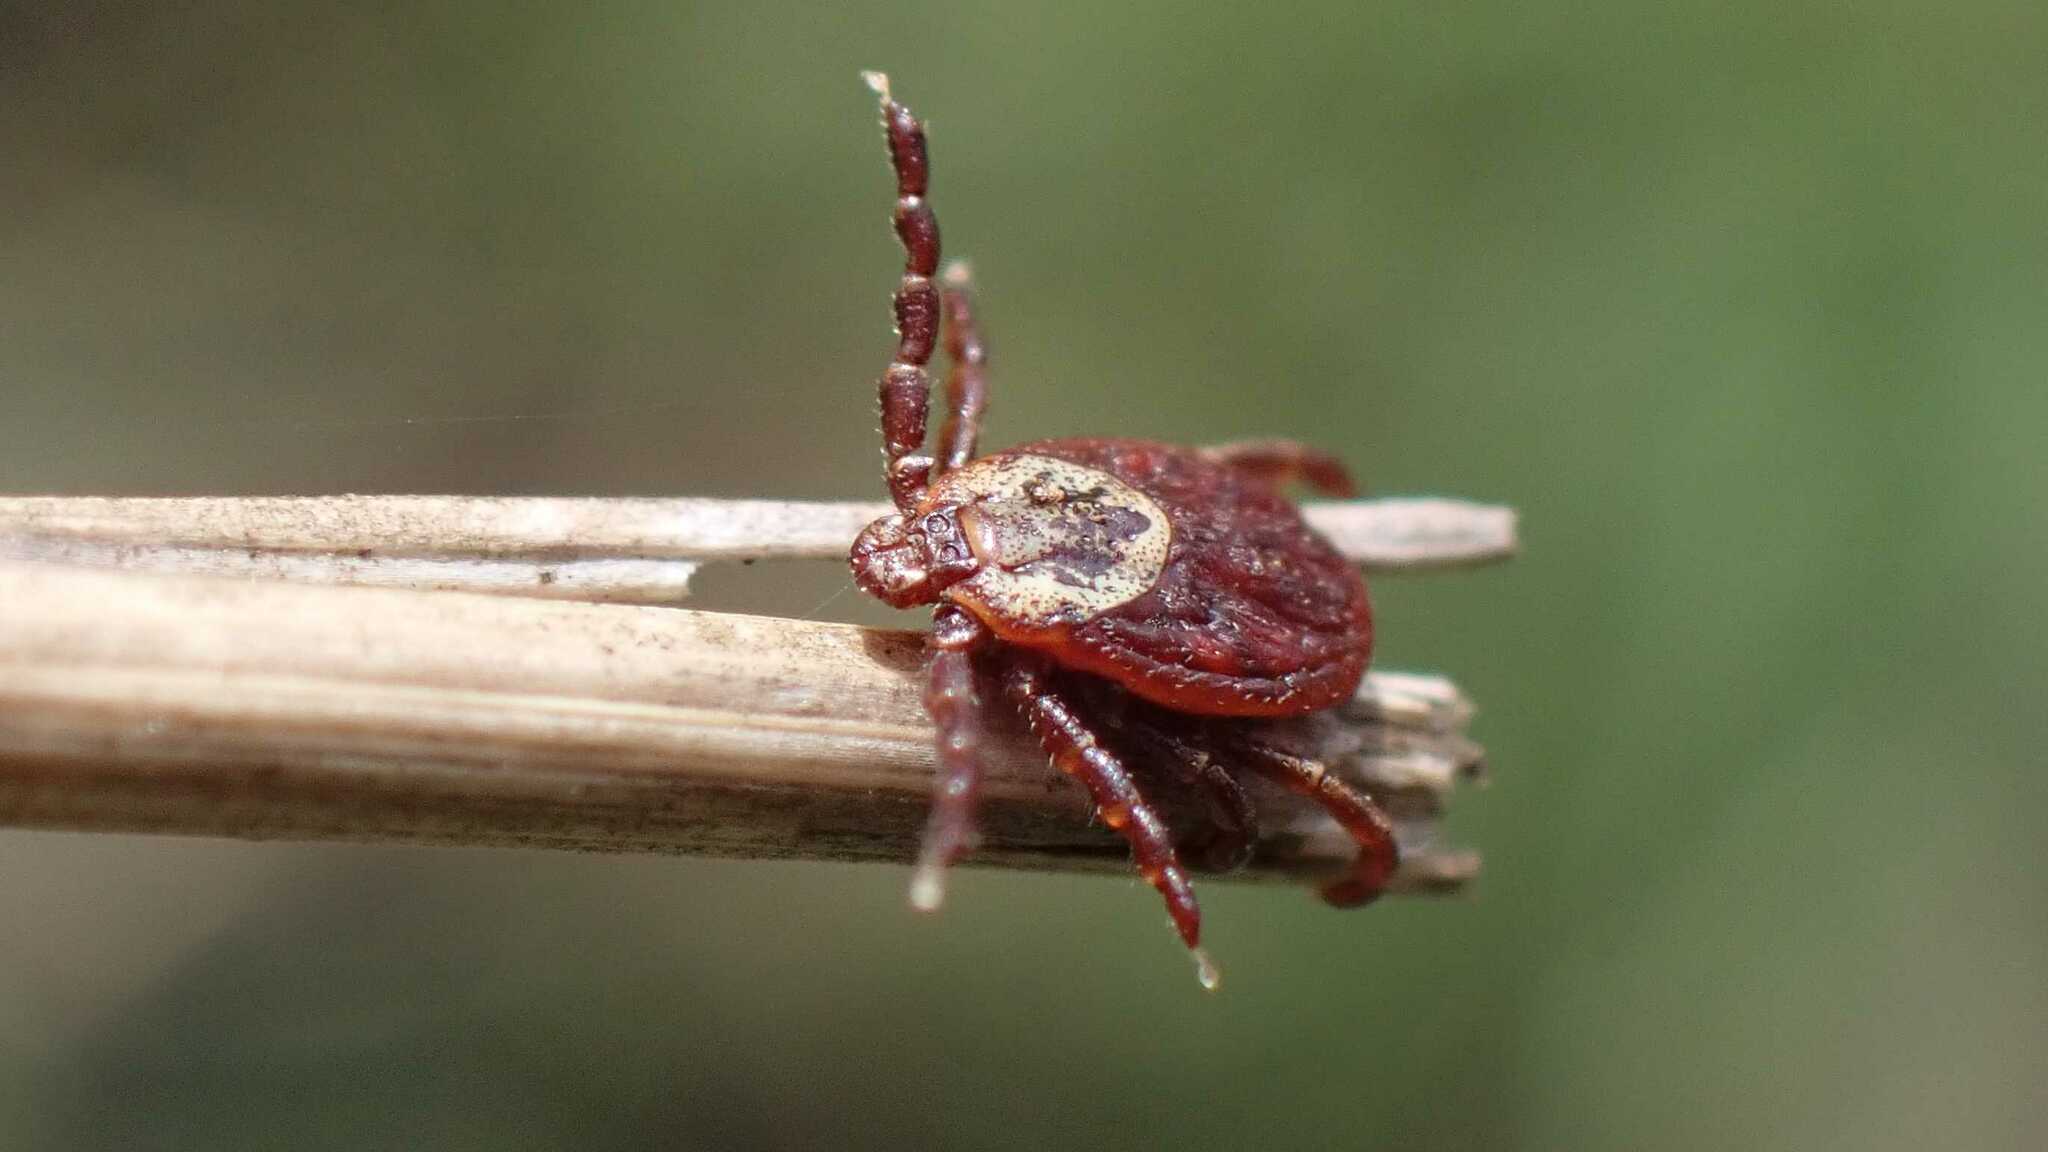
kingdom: Animalia
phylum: Arthropoda
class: Arachnida
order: Ixodida
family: Ixodidae
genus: Dermacentor
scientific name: Dermacentor reticulatus
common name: Ornate cow tick
